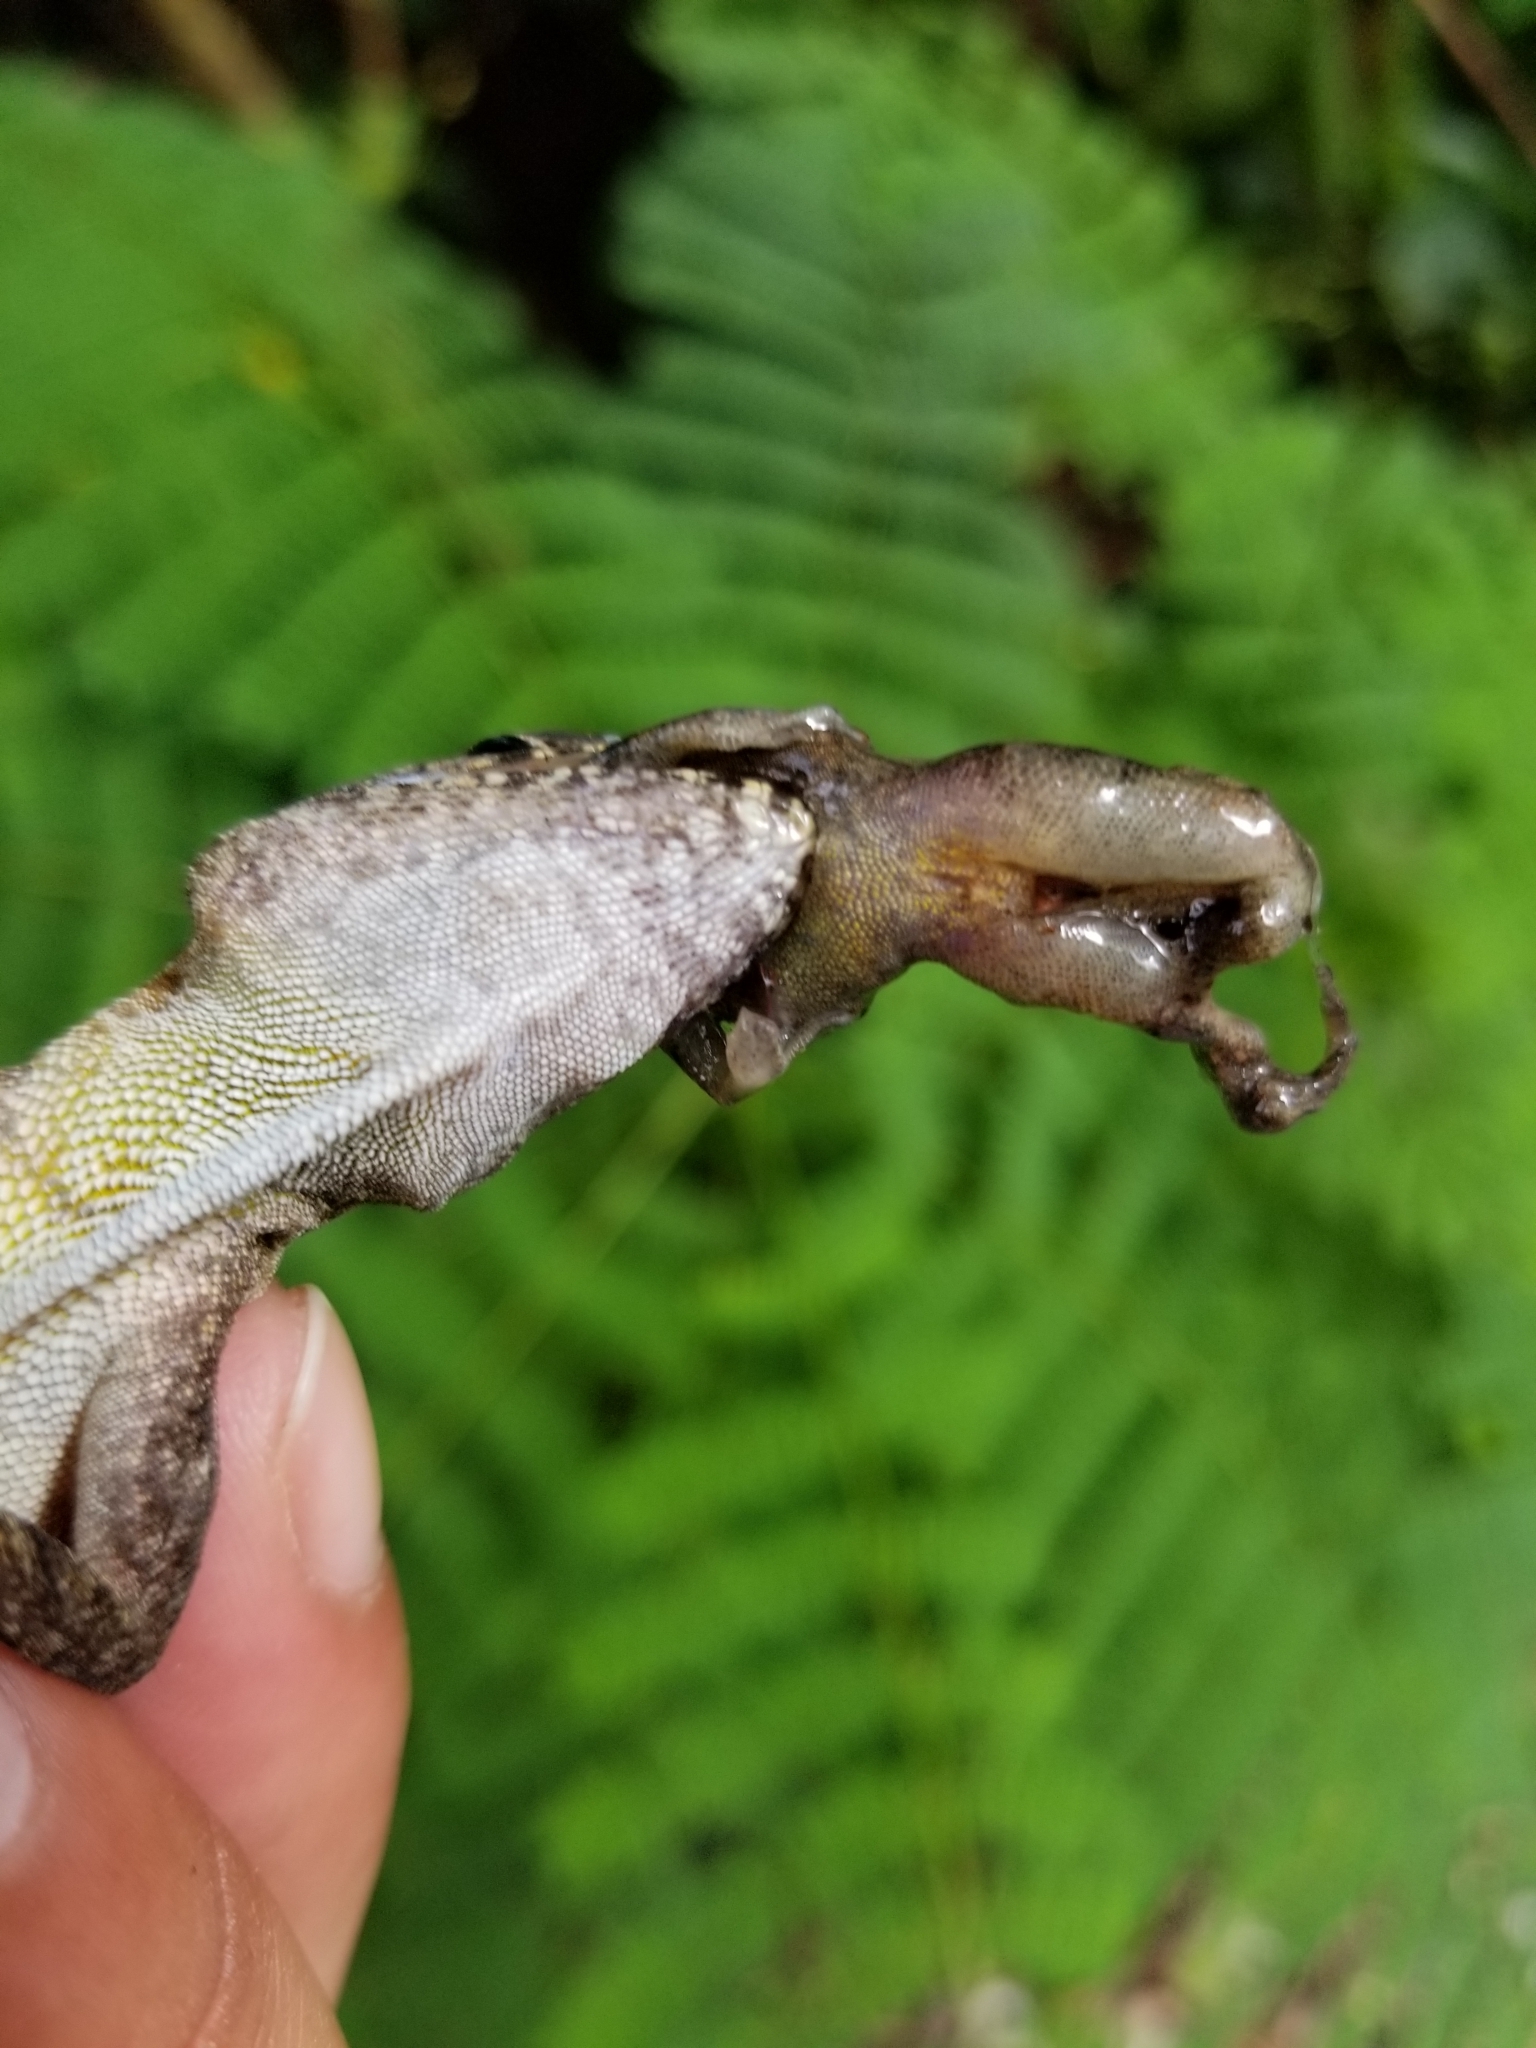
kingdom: Animalia
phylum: Chordata
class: Squamata
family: Dactyloidae
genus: Anolis
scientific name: Anolis cristatellus
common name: Crested anole
